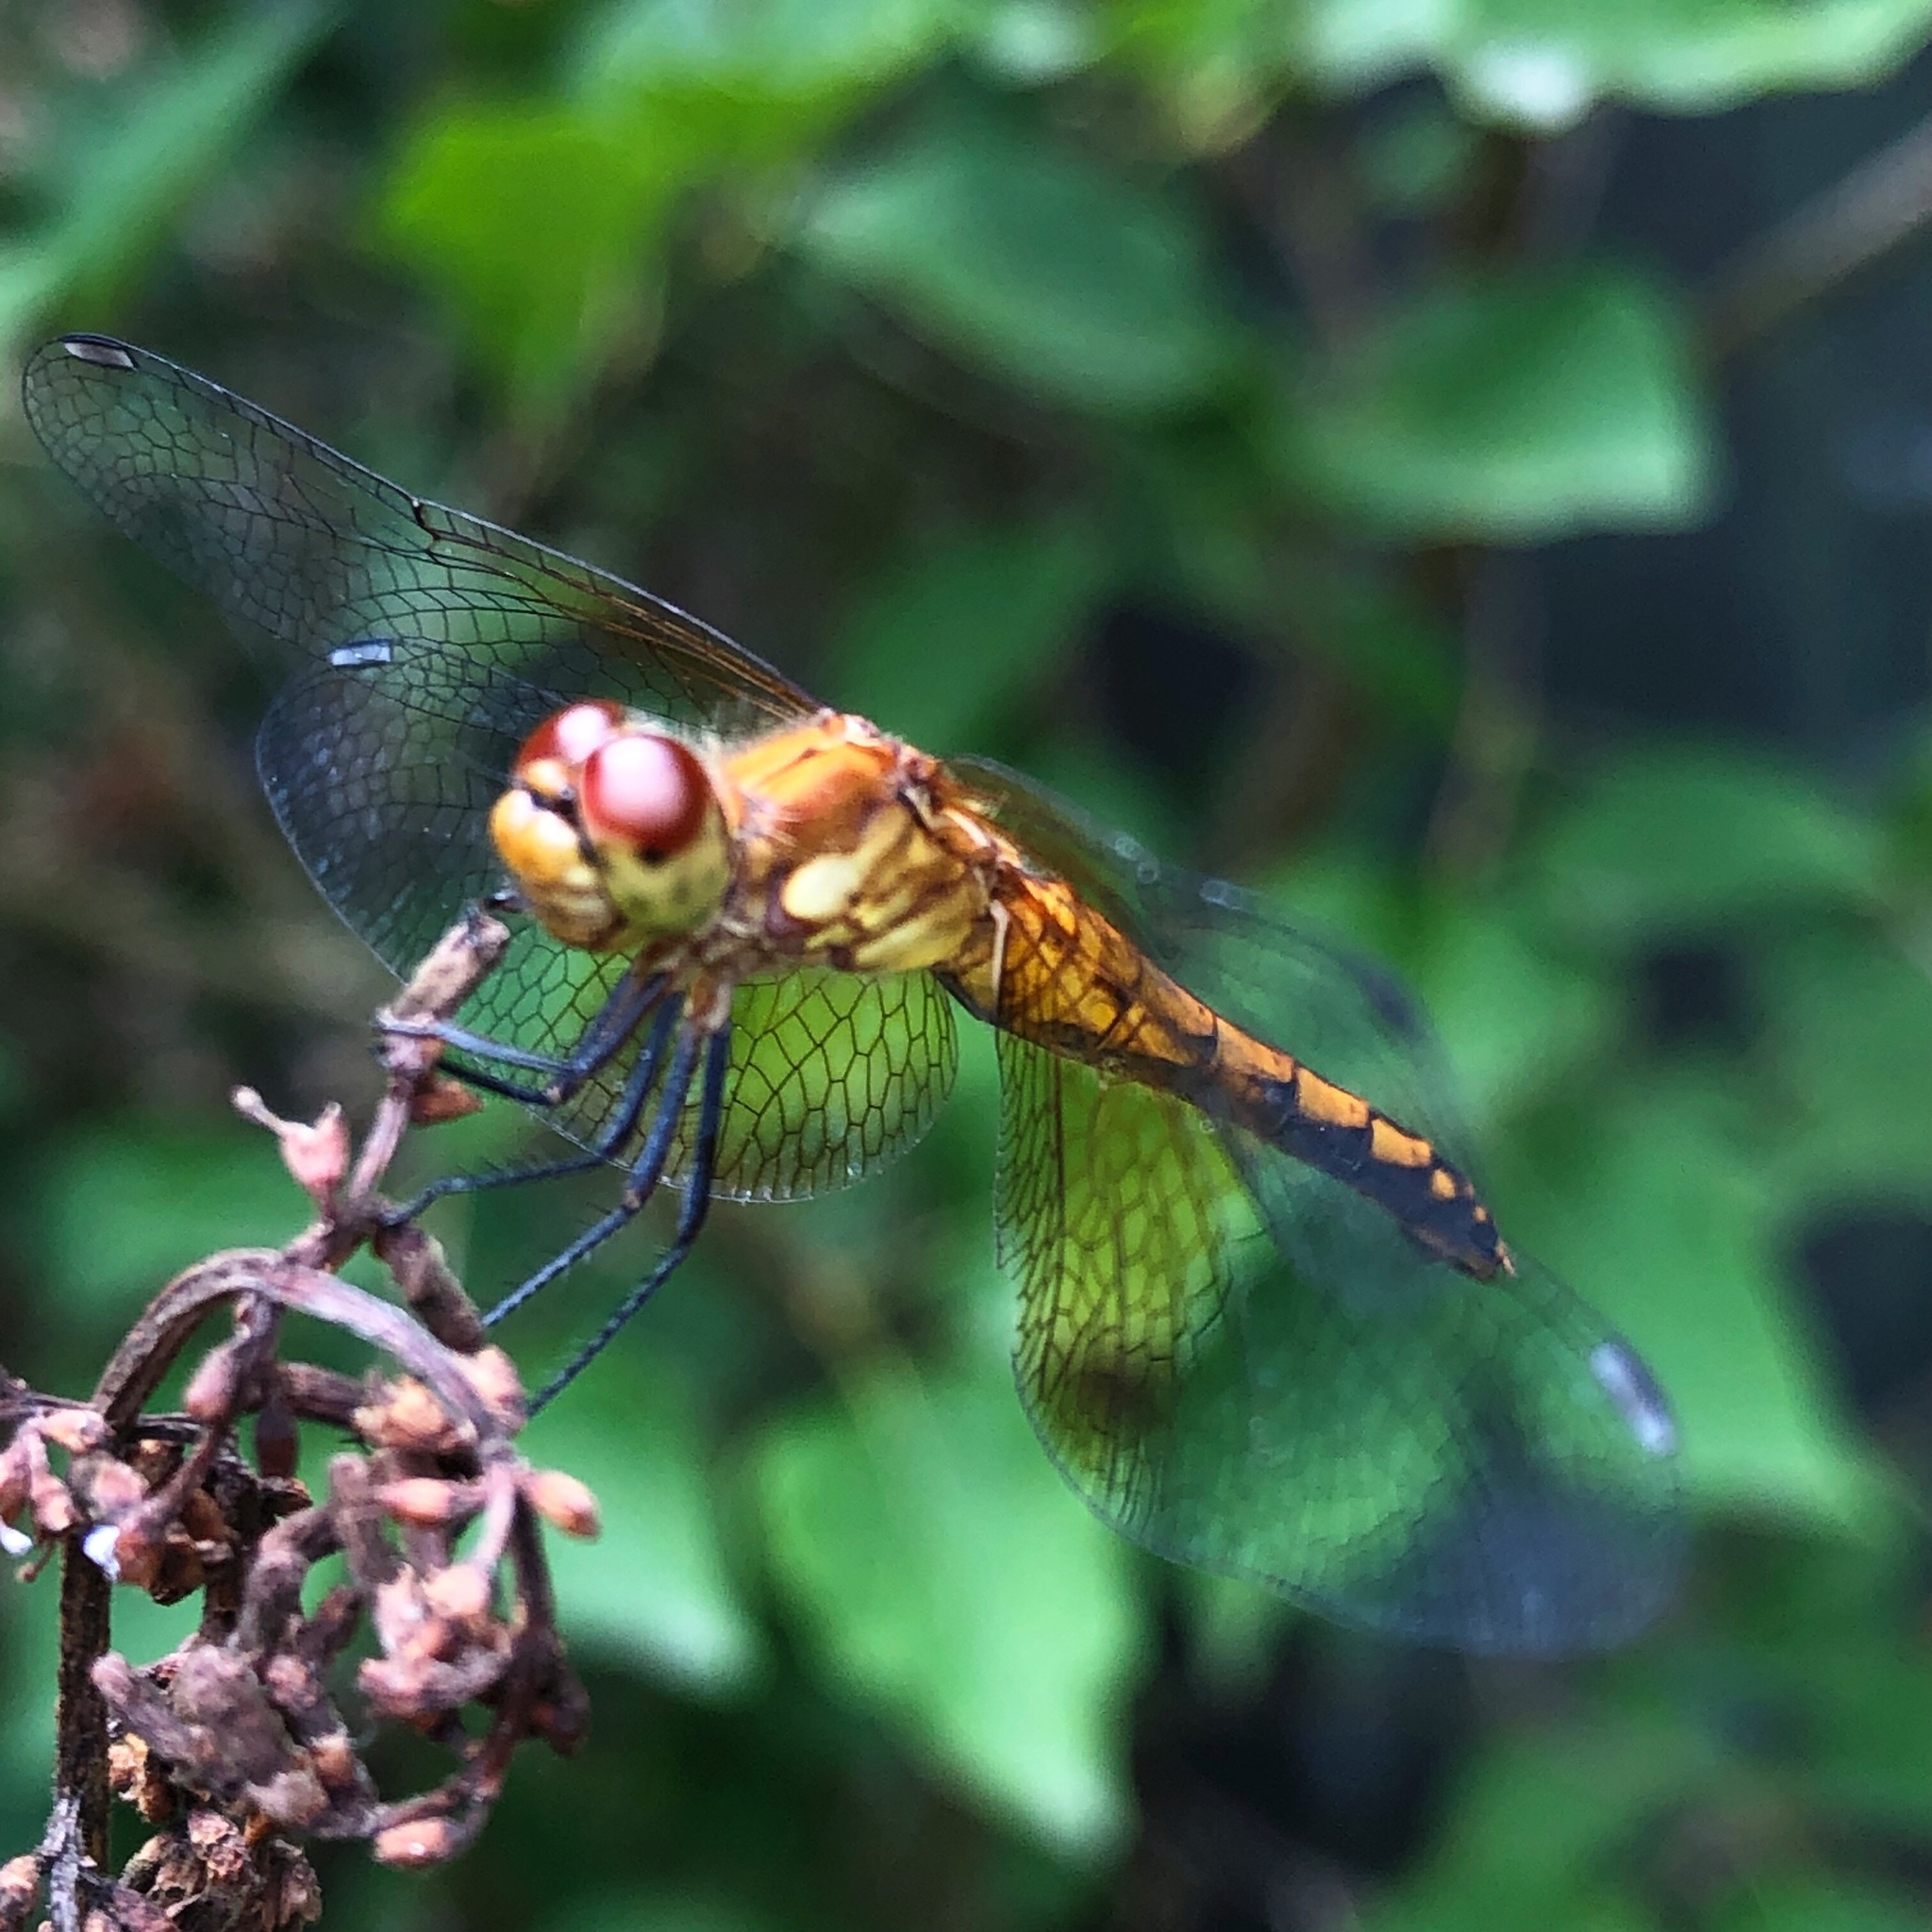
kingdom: Animalia
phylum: Arthropoda
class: Insecta
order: Odonata
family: Libellulidae
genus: Sympetrum
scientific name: Sympetrum semicinctum
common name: Band-winged meadowhawk
